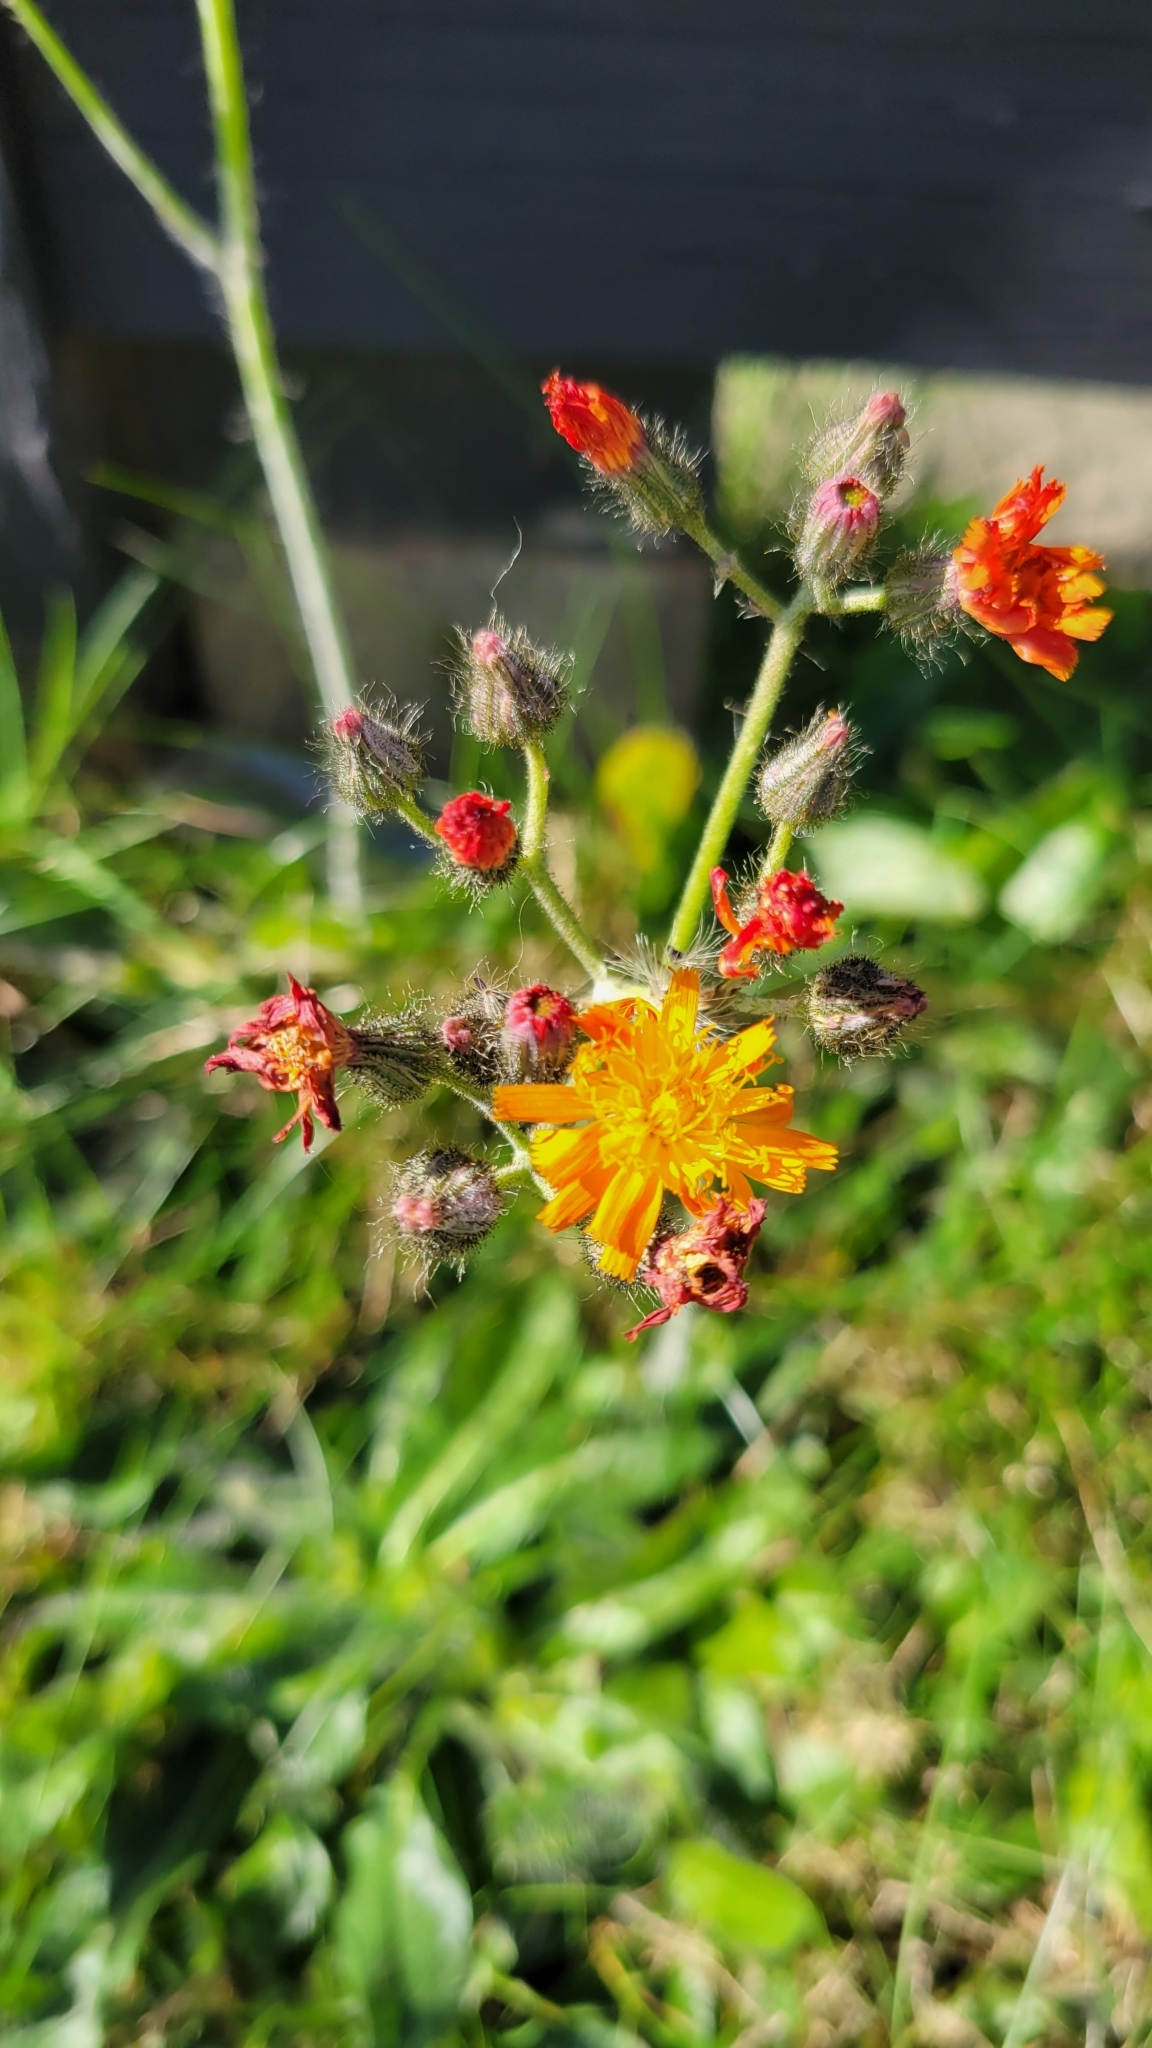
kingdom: Plantae
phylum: Tracheophyta
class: Magnoliopsida
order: Asterales
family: Asteraceae
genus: Pilosella
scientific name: Pilosella aurantiaca
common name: Fox-and-cubs
